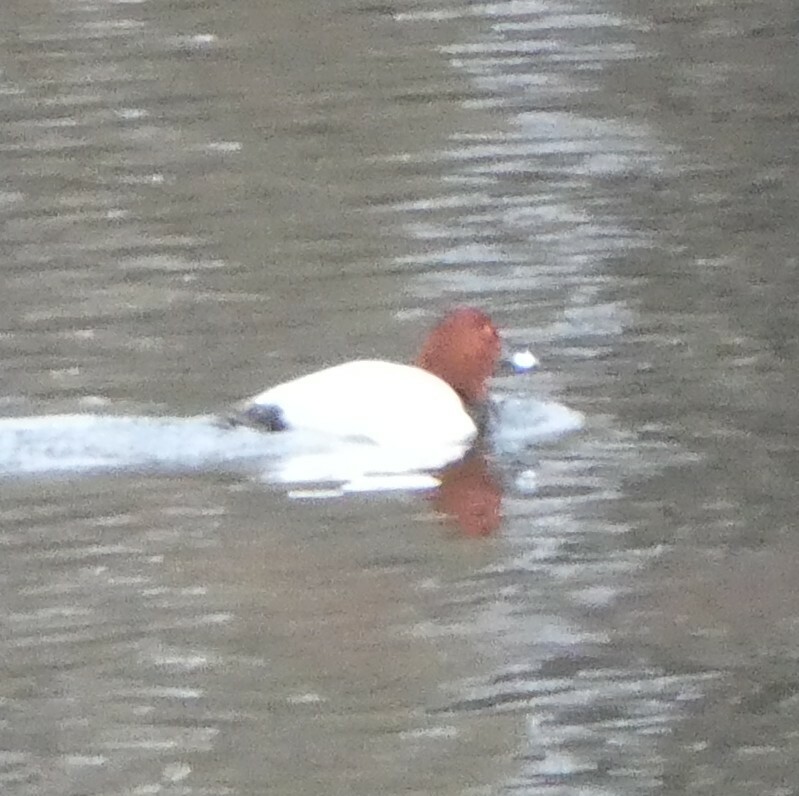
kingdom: Animalia
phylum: Chordata
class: Aves
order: Anseriformes
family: Anatidae
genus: Aythya
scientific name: Aythya ferina
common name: Common pochard
